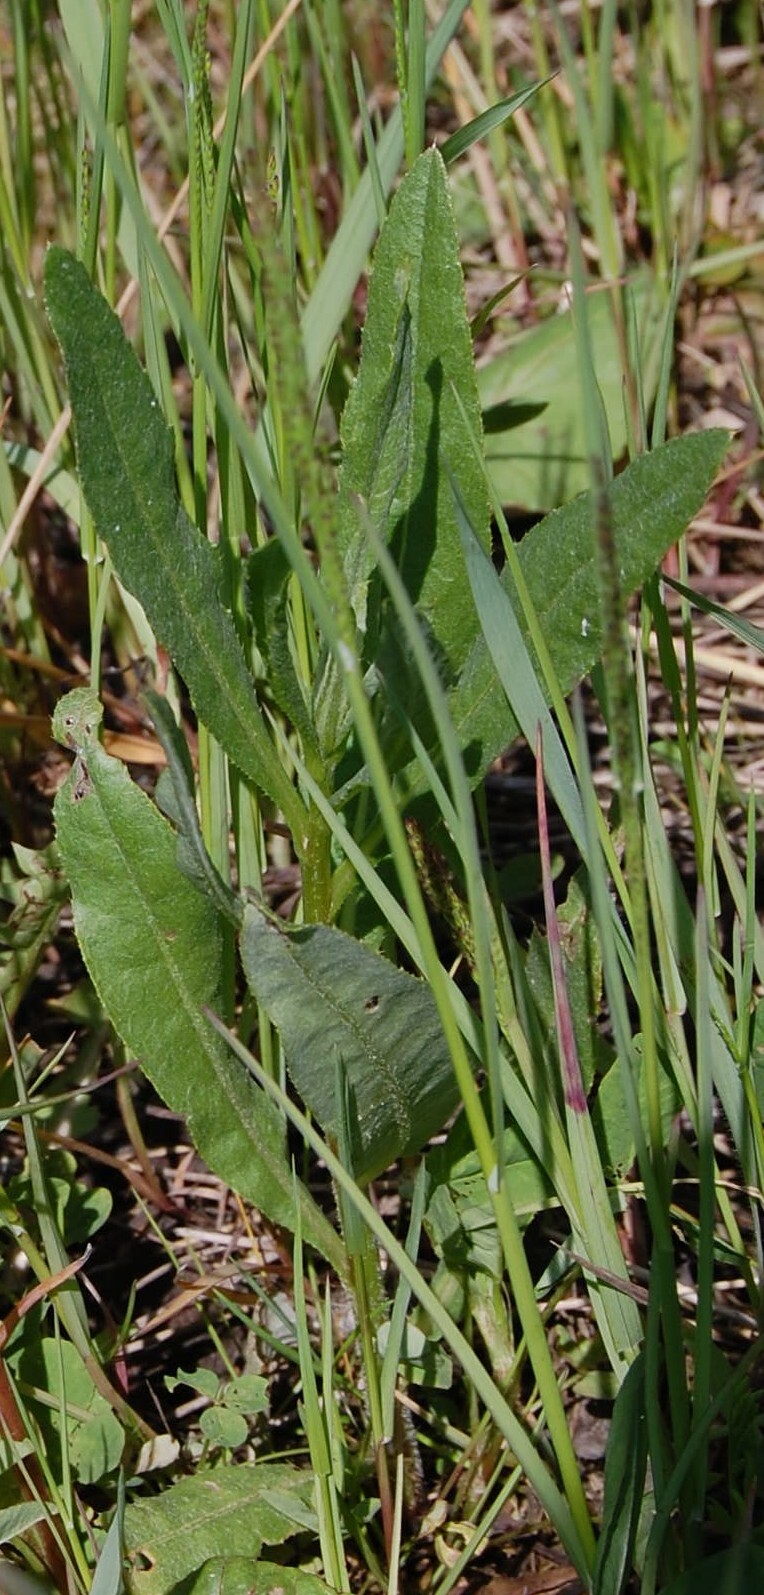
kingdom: Plantae
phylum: Tracheophyta
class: Magnoliopsida
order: Asterales
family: Asteraceae
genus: Cirsium
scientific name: Cirsium arvense
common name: Creeping thistle
